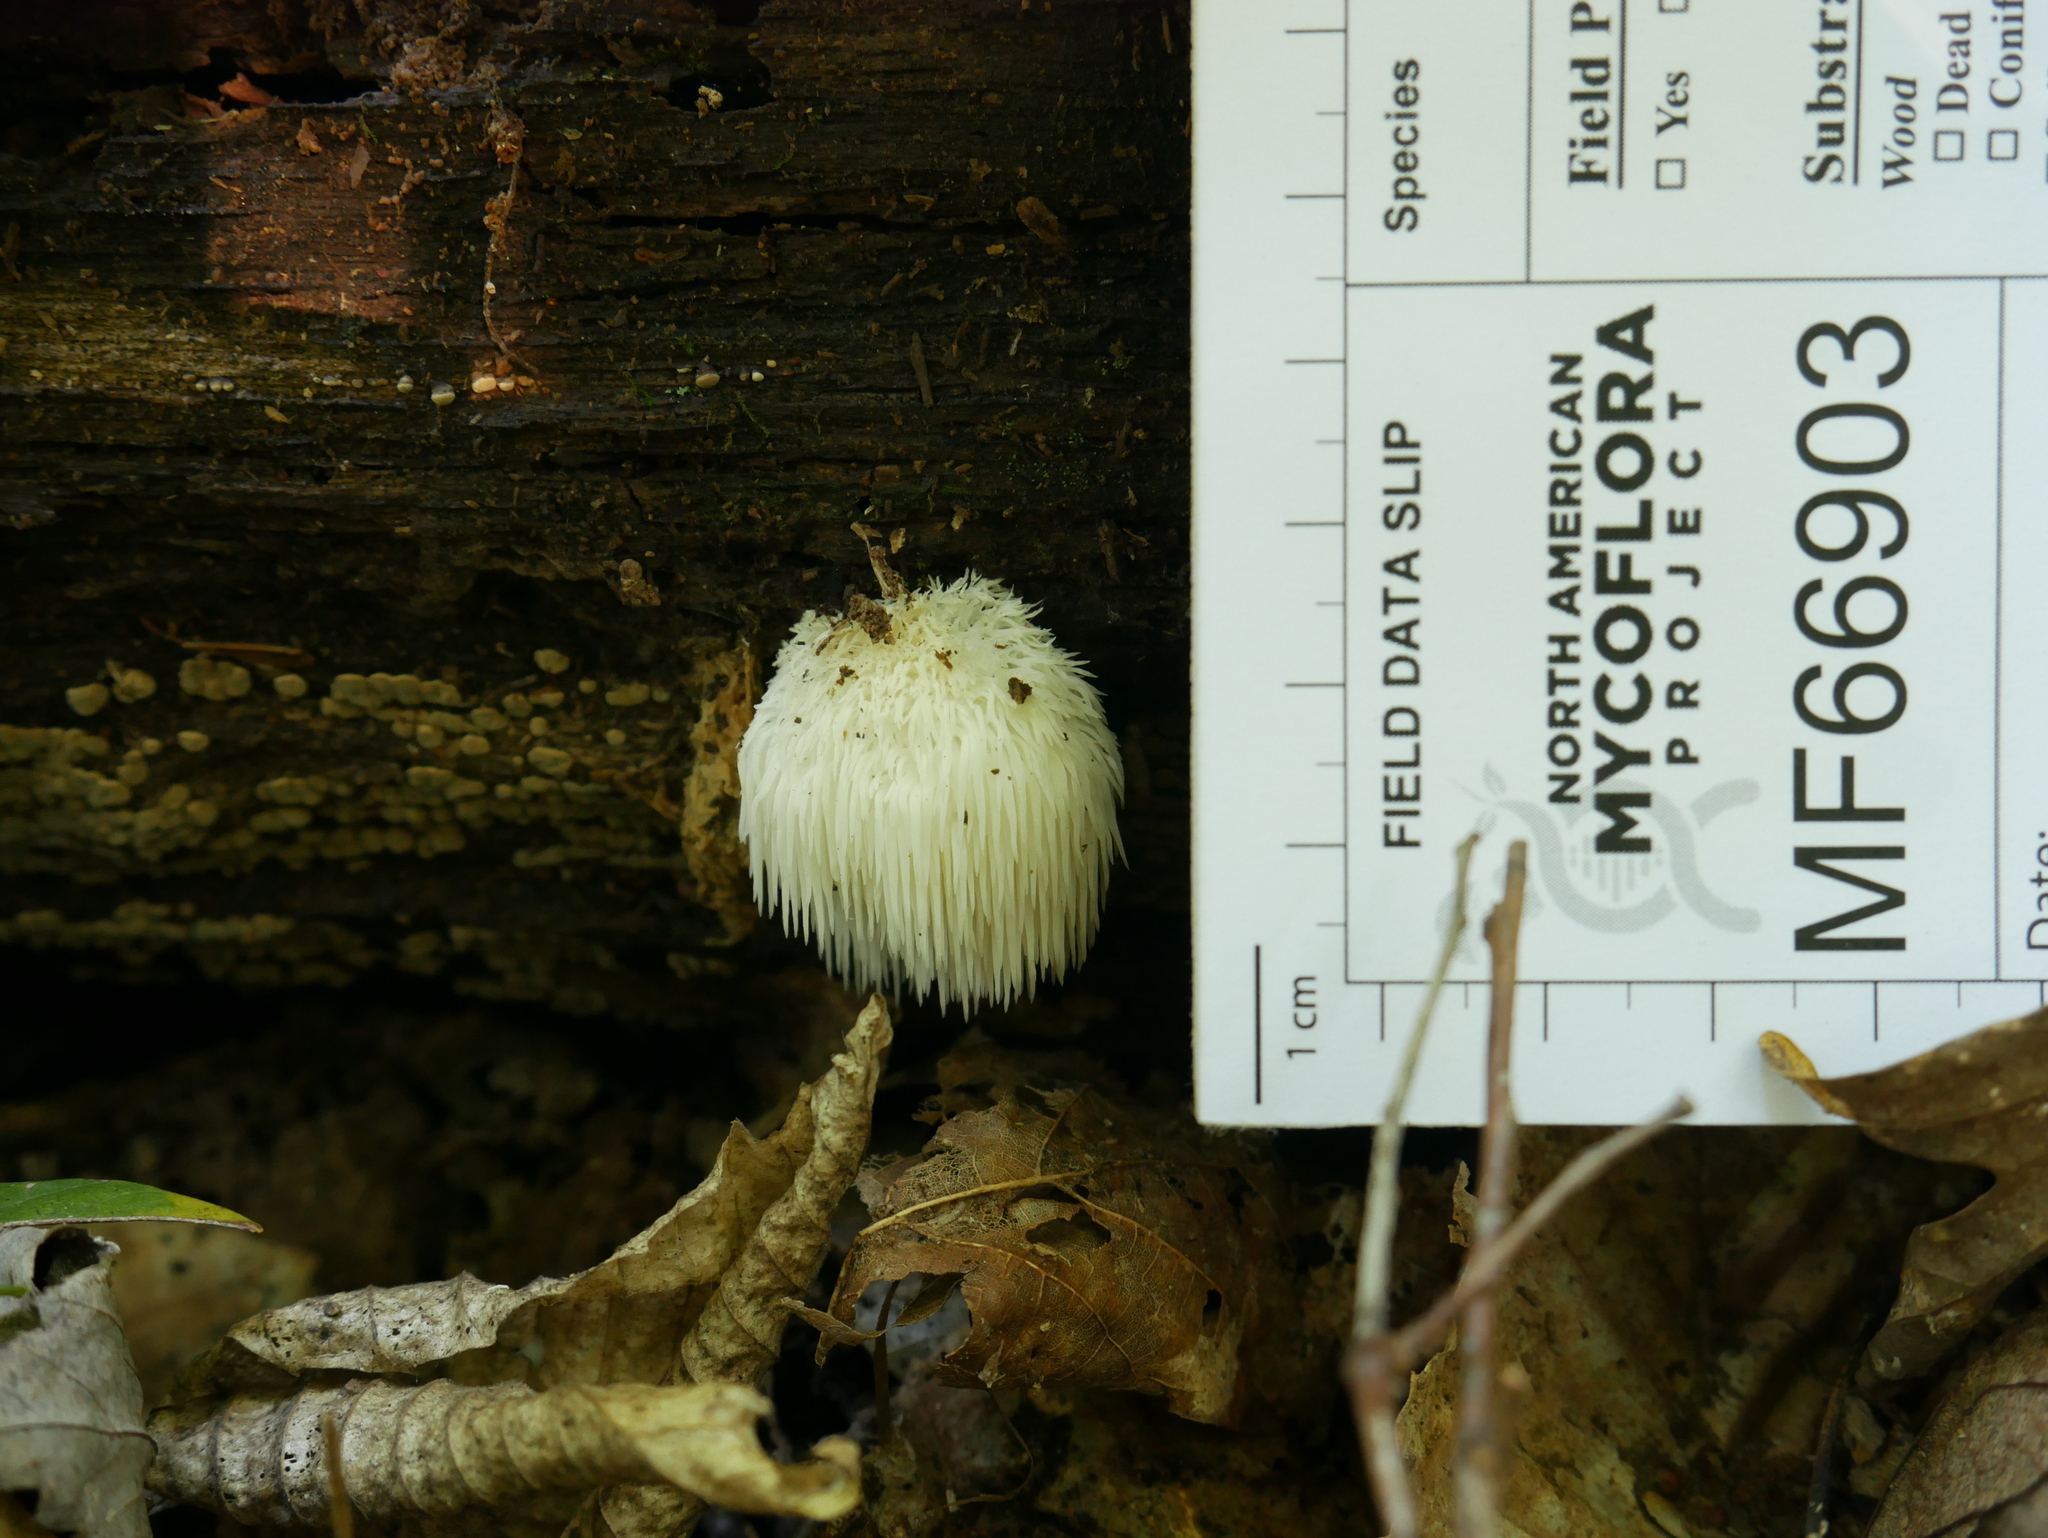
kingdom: Fungi
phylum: Basidiomycota
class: Agaricomycetes
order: Russulales
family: Hericiaceae
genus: Hericium
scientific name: Hericium erinaceus
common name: Bearded tooth
